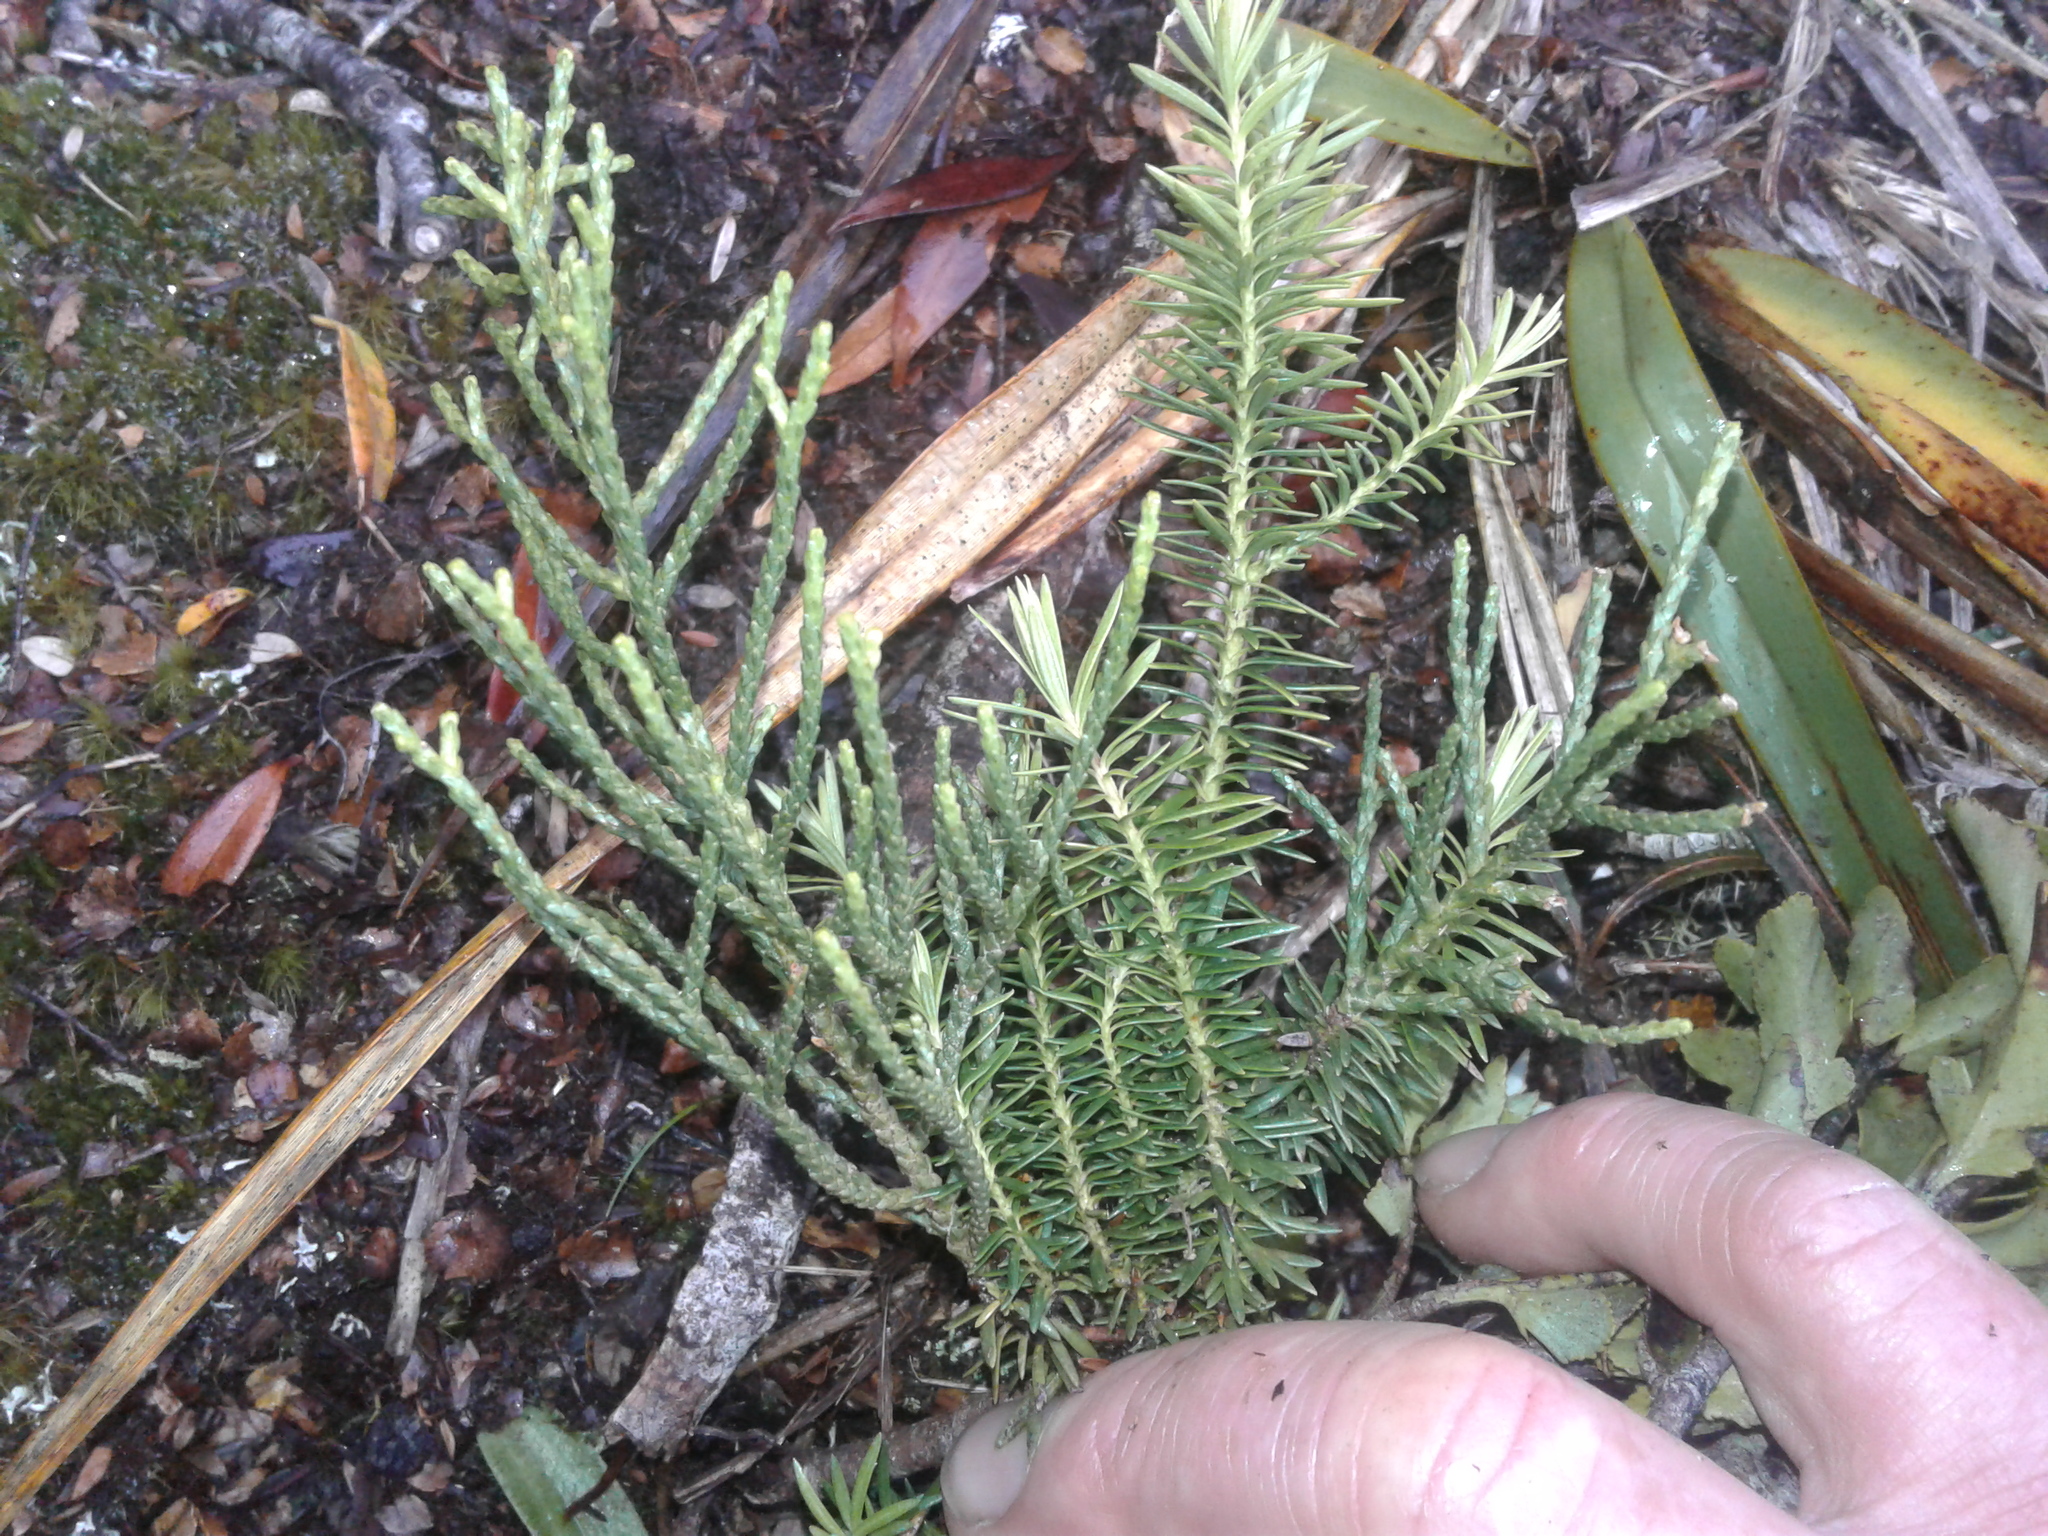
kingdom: Plantae
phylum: Tracheophyta
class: Pinopsida
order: Pinales
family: Podocarpaceae
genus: Halocarpus
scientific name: Halocarpus biformis
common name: Alpine tarwood
